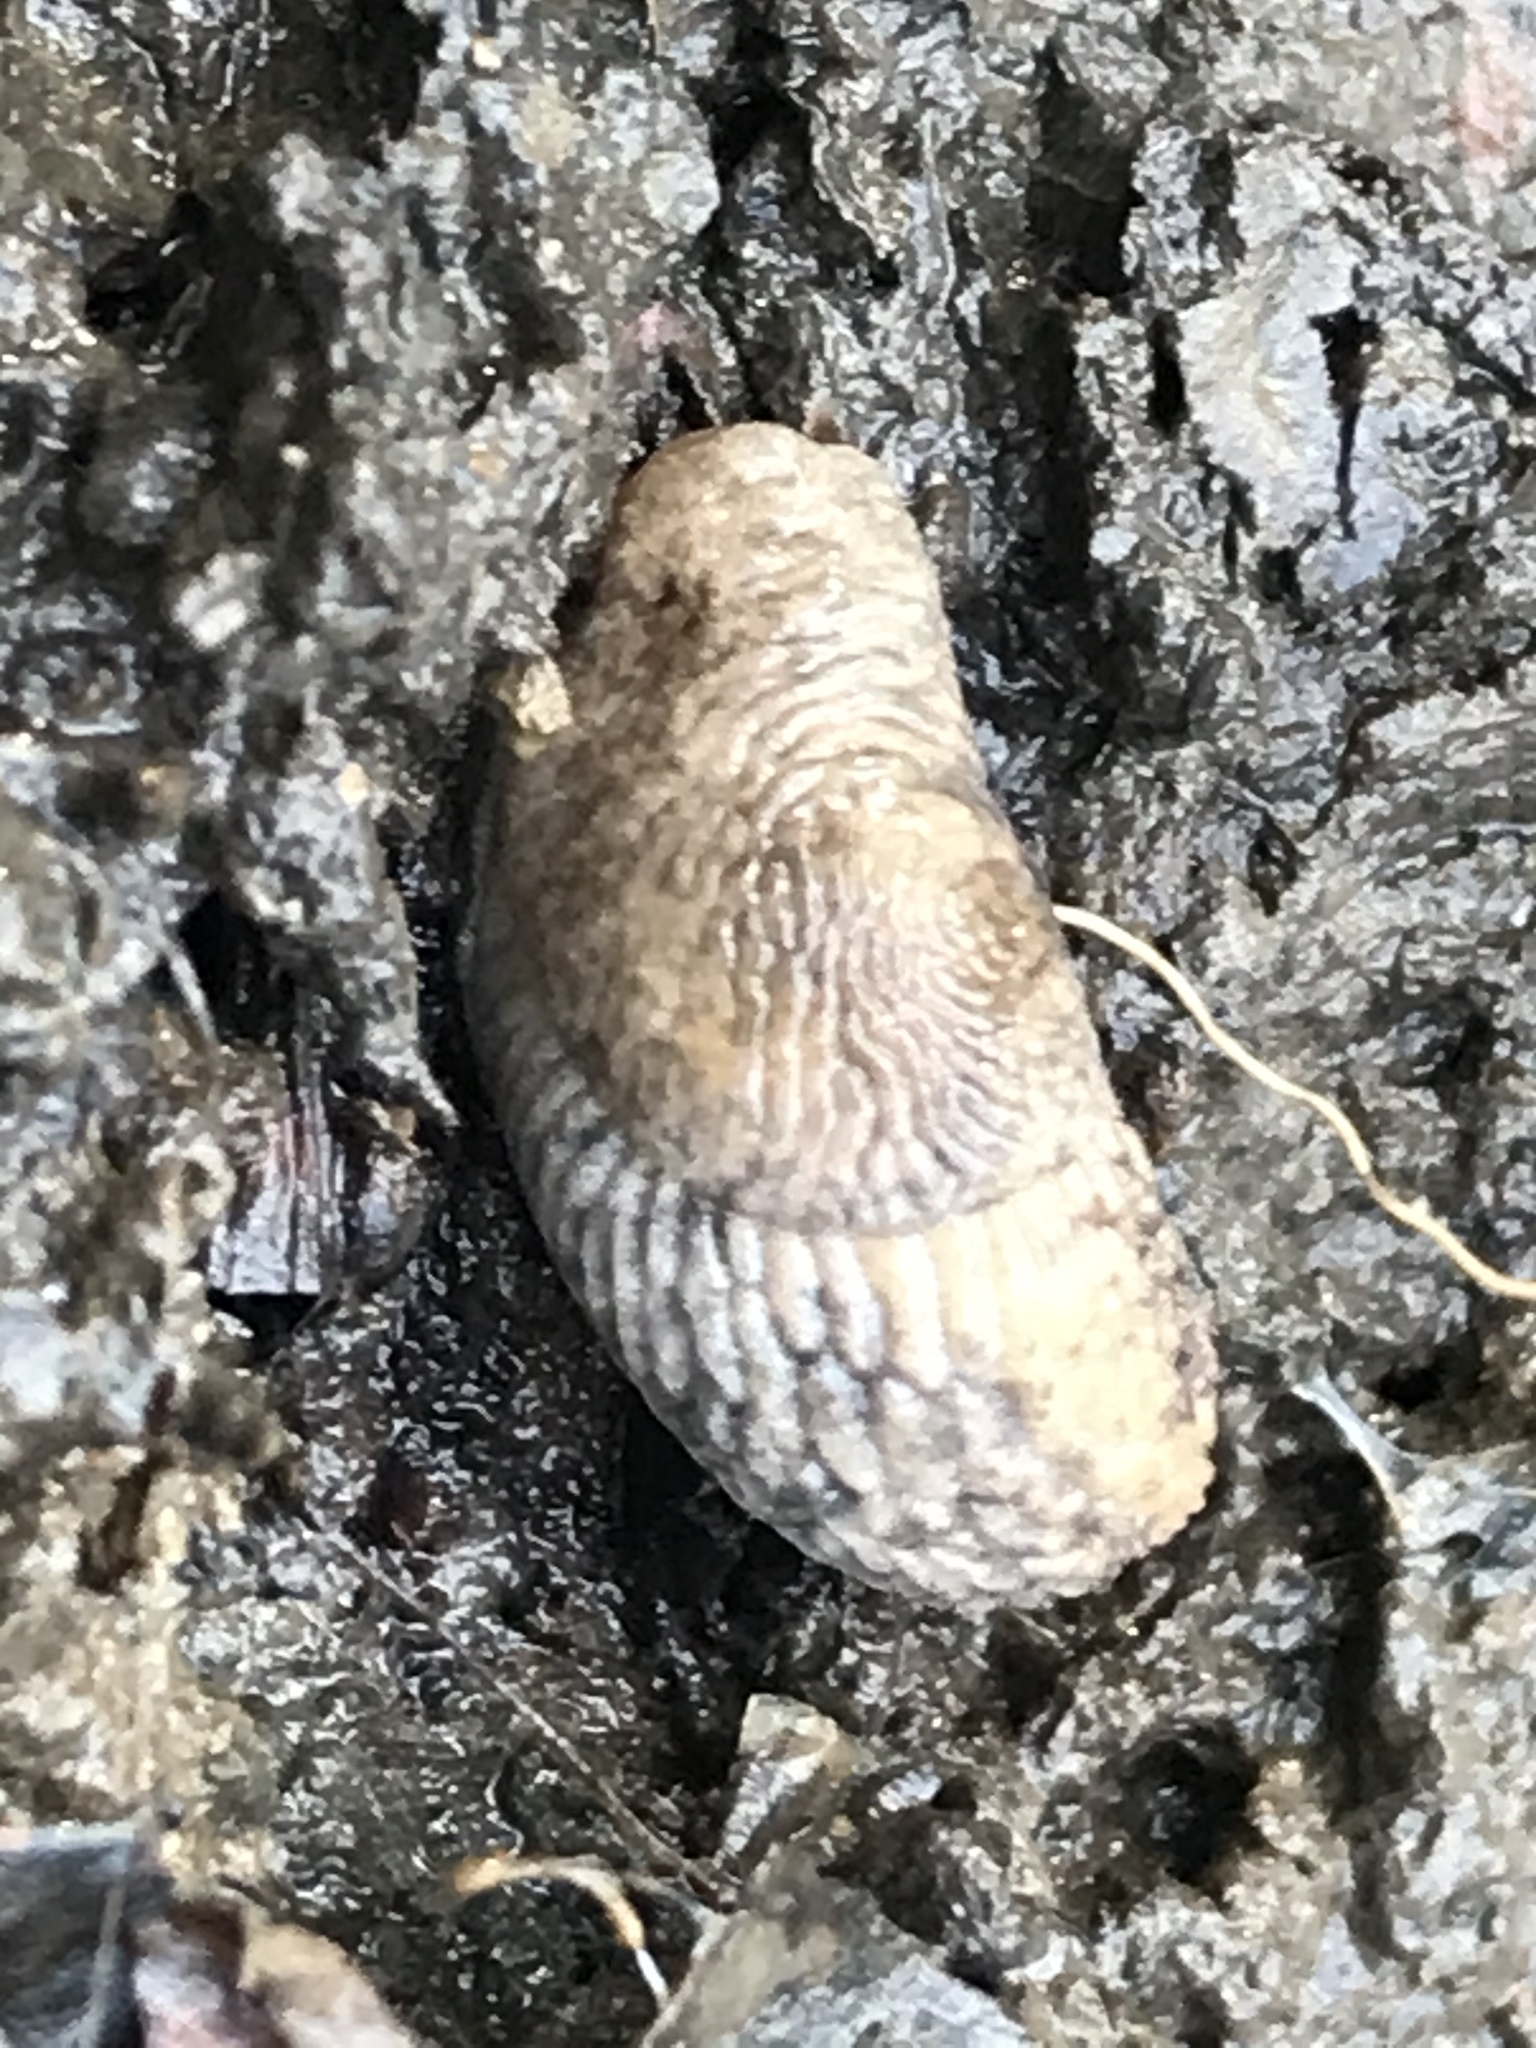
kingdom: Animalia
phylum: Mollusca
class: Gastropoda
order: Stylommatophora
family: Agriolimacidae
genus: Deroceras
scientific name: Deroceras reticulatum
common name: Gray field slug
